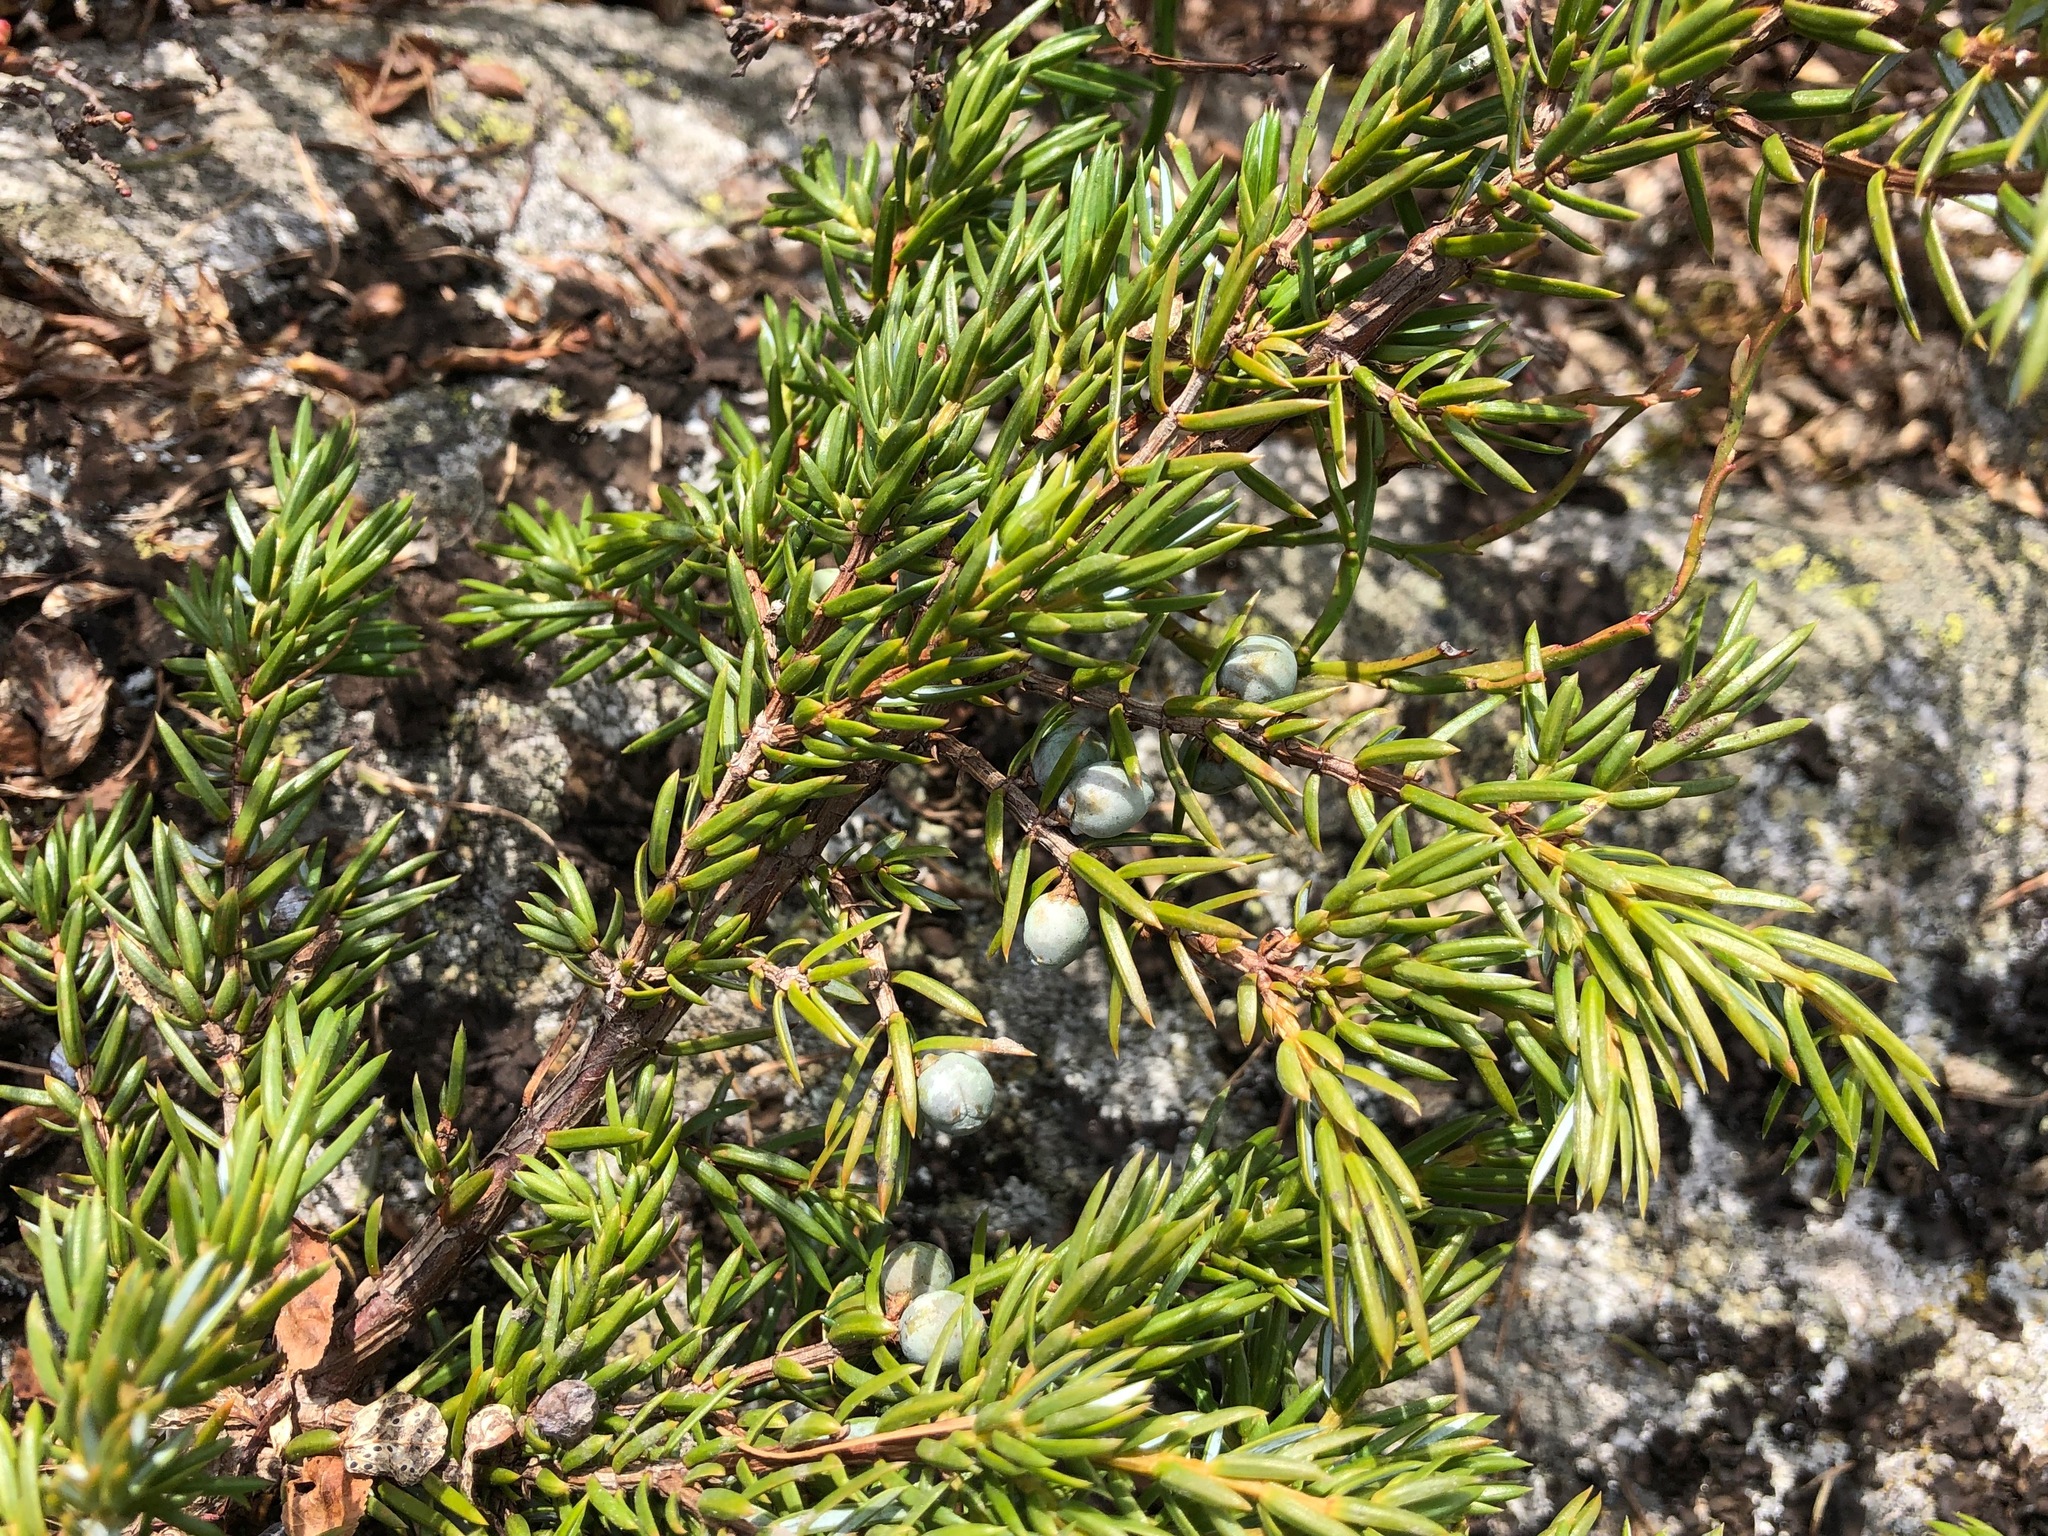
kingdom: Plantae
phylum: Tracheophyta
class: Pinopsida
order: Pinales
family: Cupressaceae
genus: Juniperus
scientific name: Juniperus communis
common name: Common juniper
